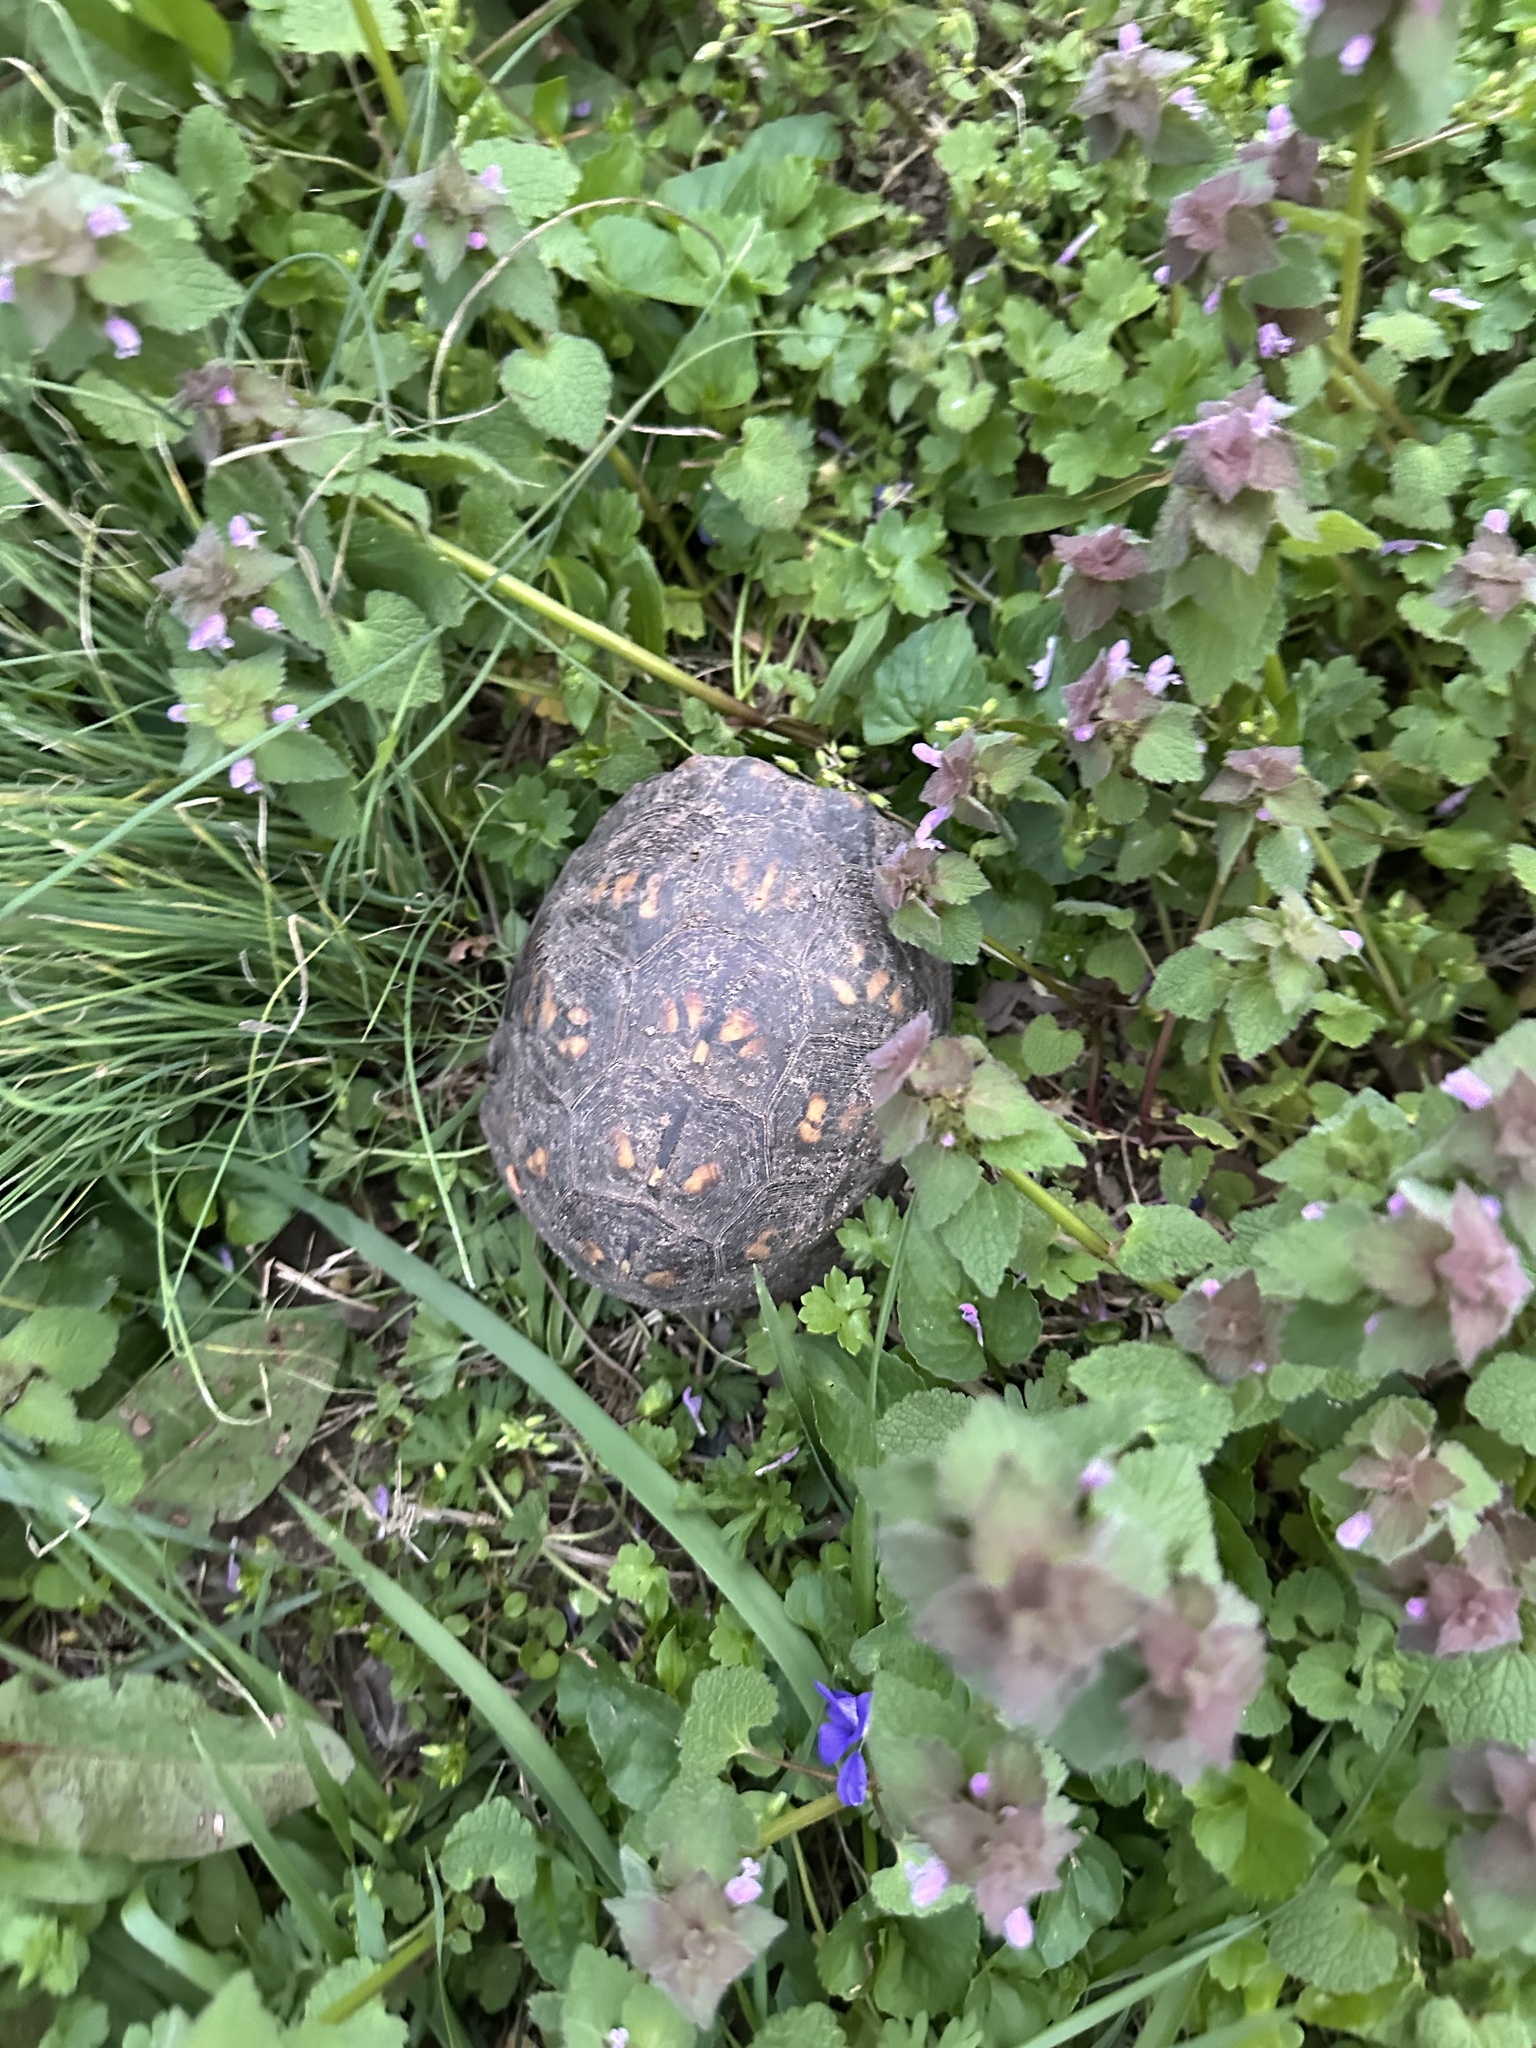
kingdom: Animalia
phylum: Chordata
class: Testudines
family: Emydidae
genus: Terrapene
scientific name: Terrapene carolina
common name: Common box turtle
